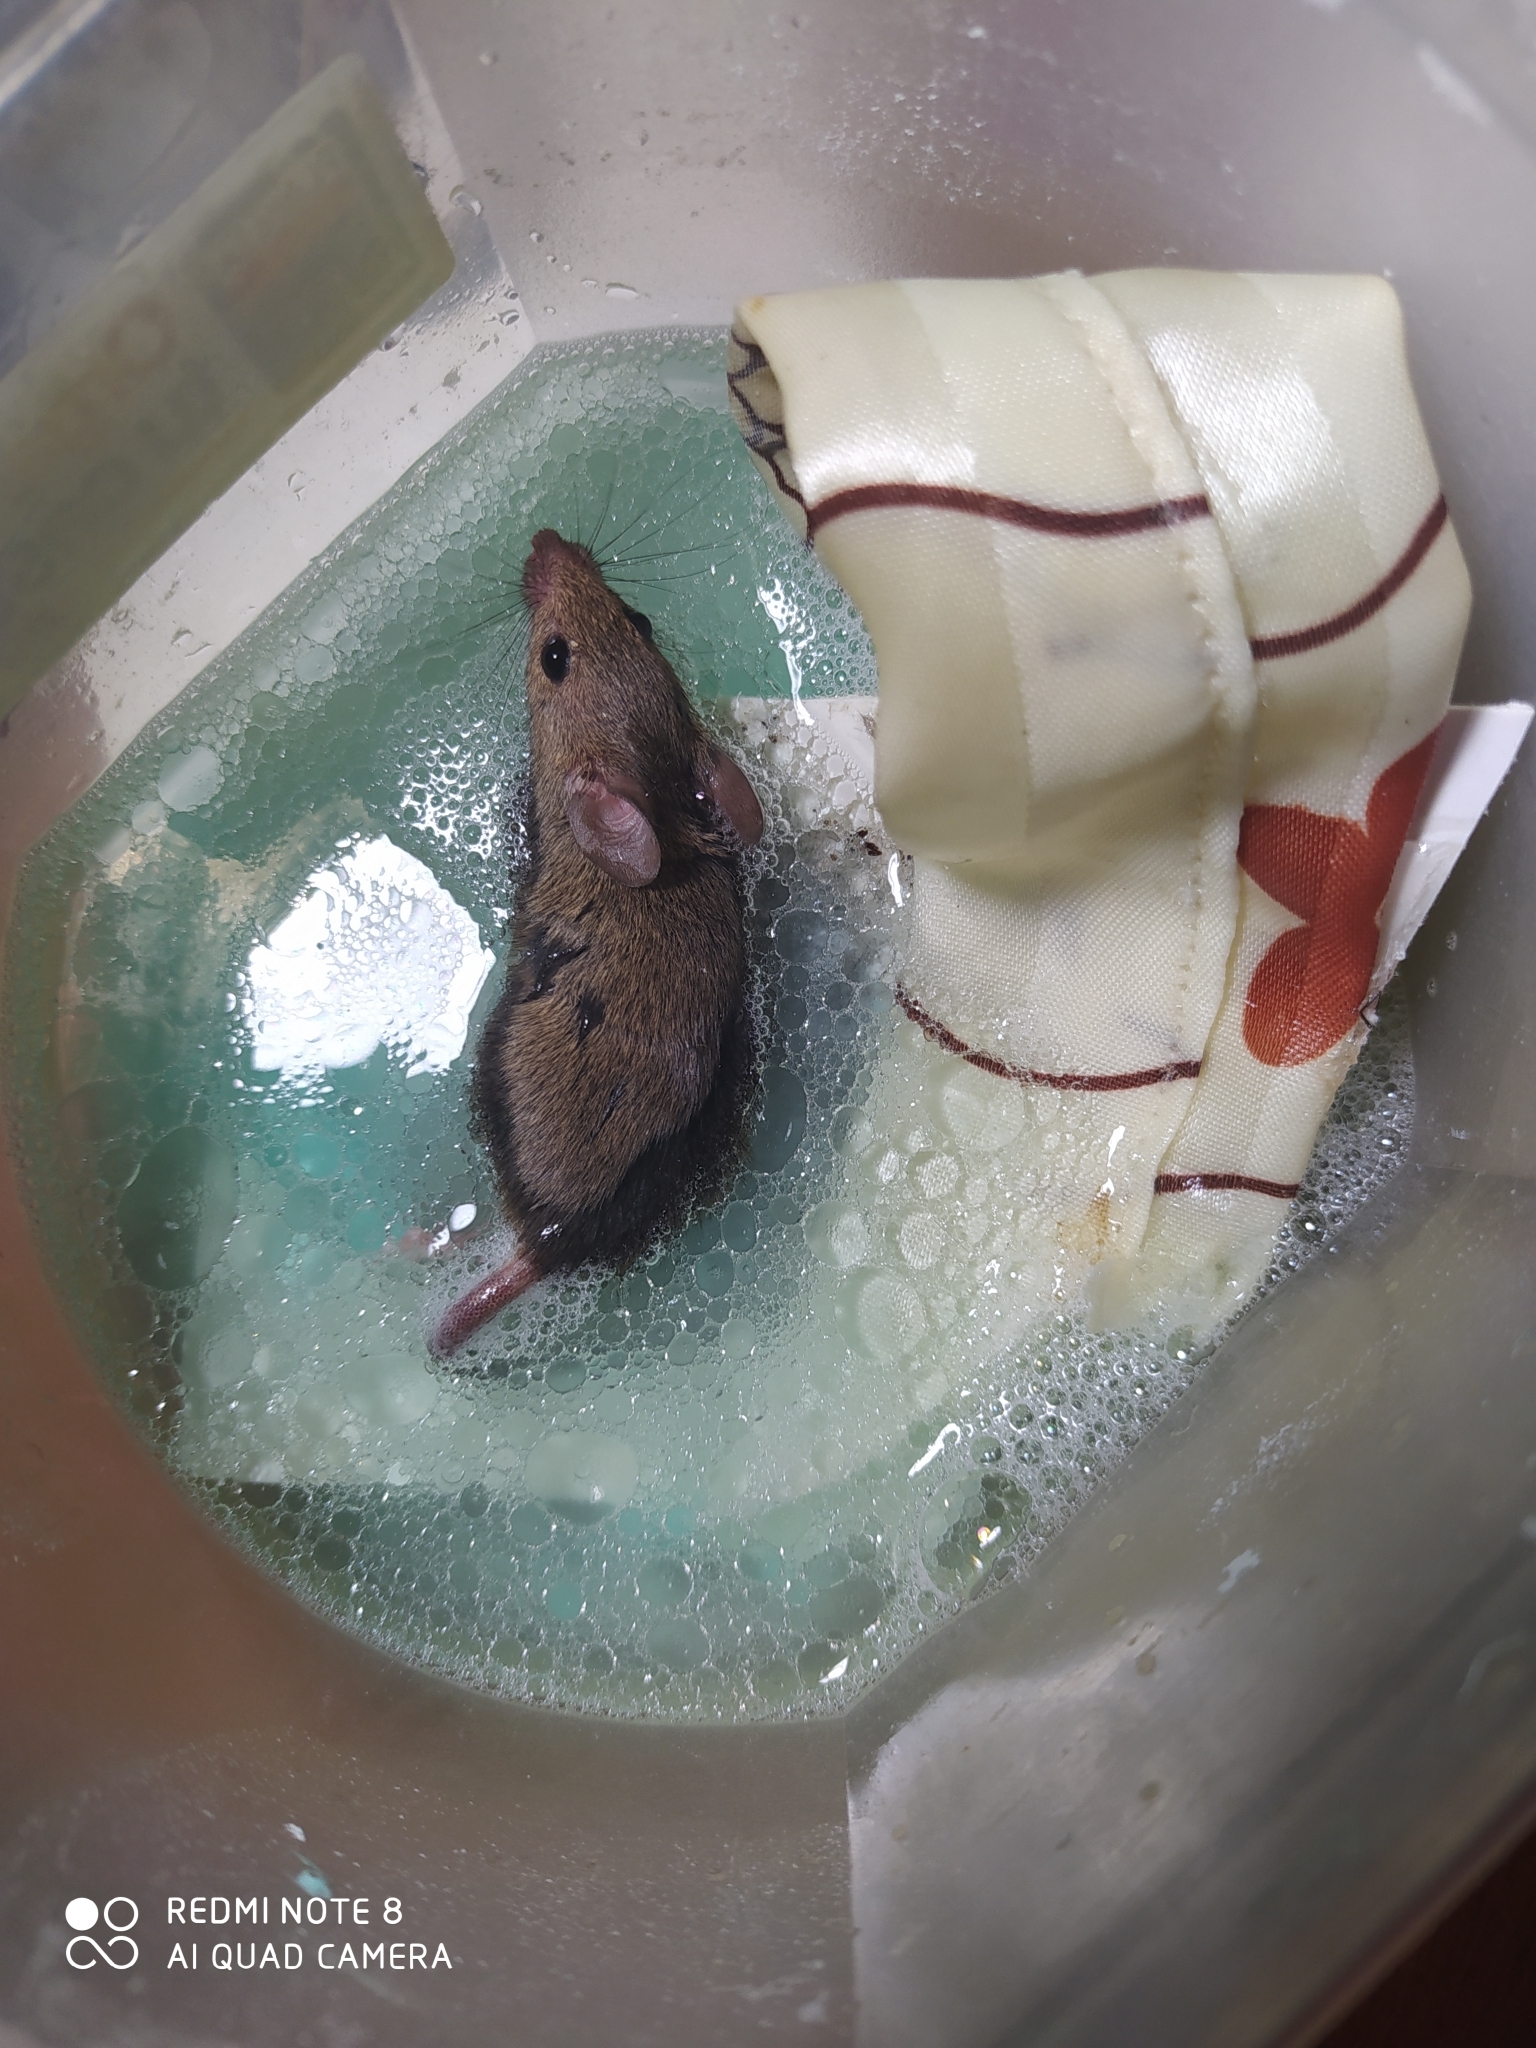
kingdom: Animalia
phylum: Chordata
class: Mammalia
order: Rodentia
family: Muridae
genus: Mus
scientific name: Mus musculus
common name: House mouse
